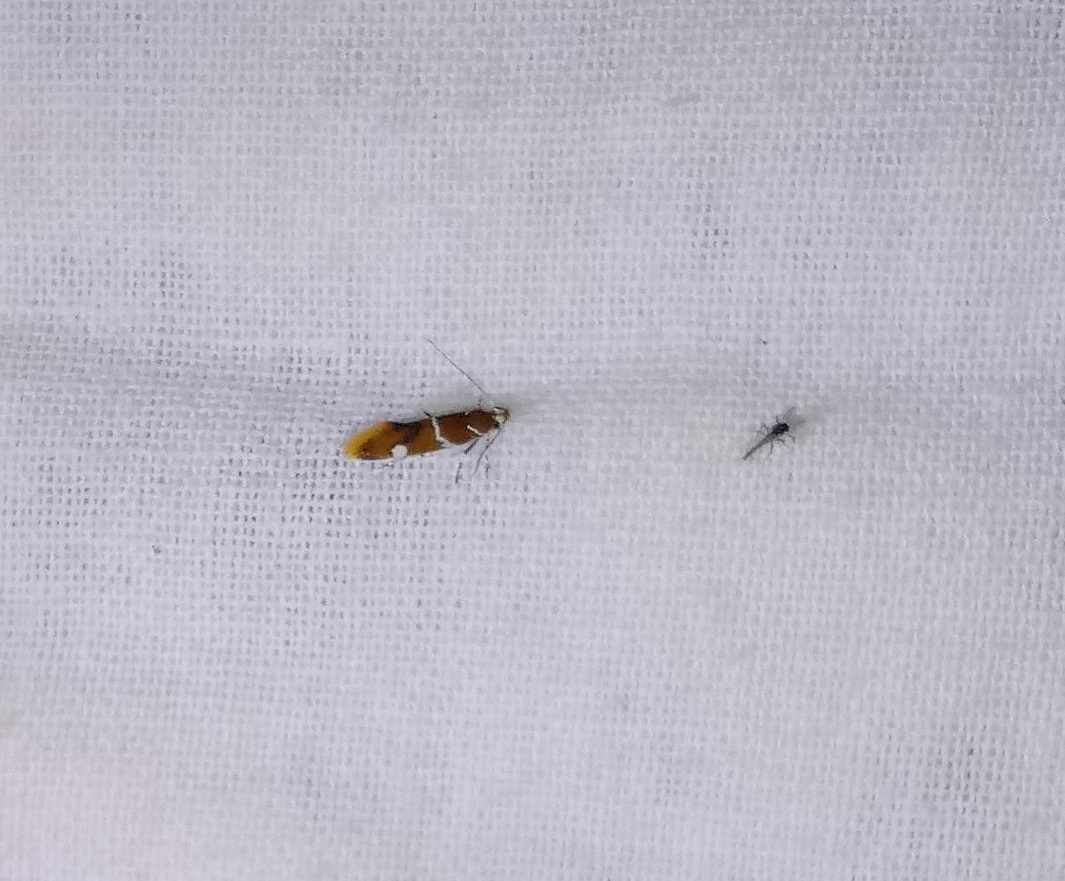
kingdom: Animalia
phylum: Arthropoda
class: Insecta
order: Lepidoptera
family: Oecophoridae
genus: Promalactis
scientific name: Promalactis suzukiella
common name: Moth
